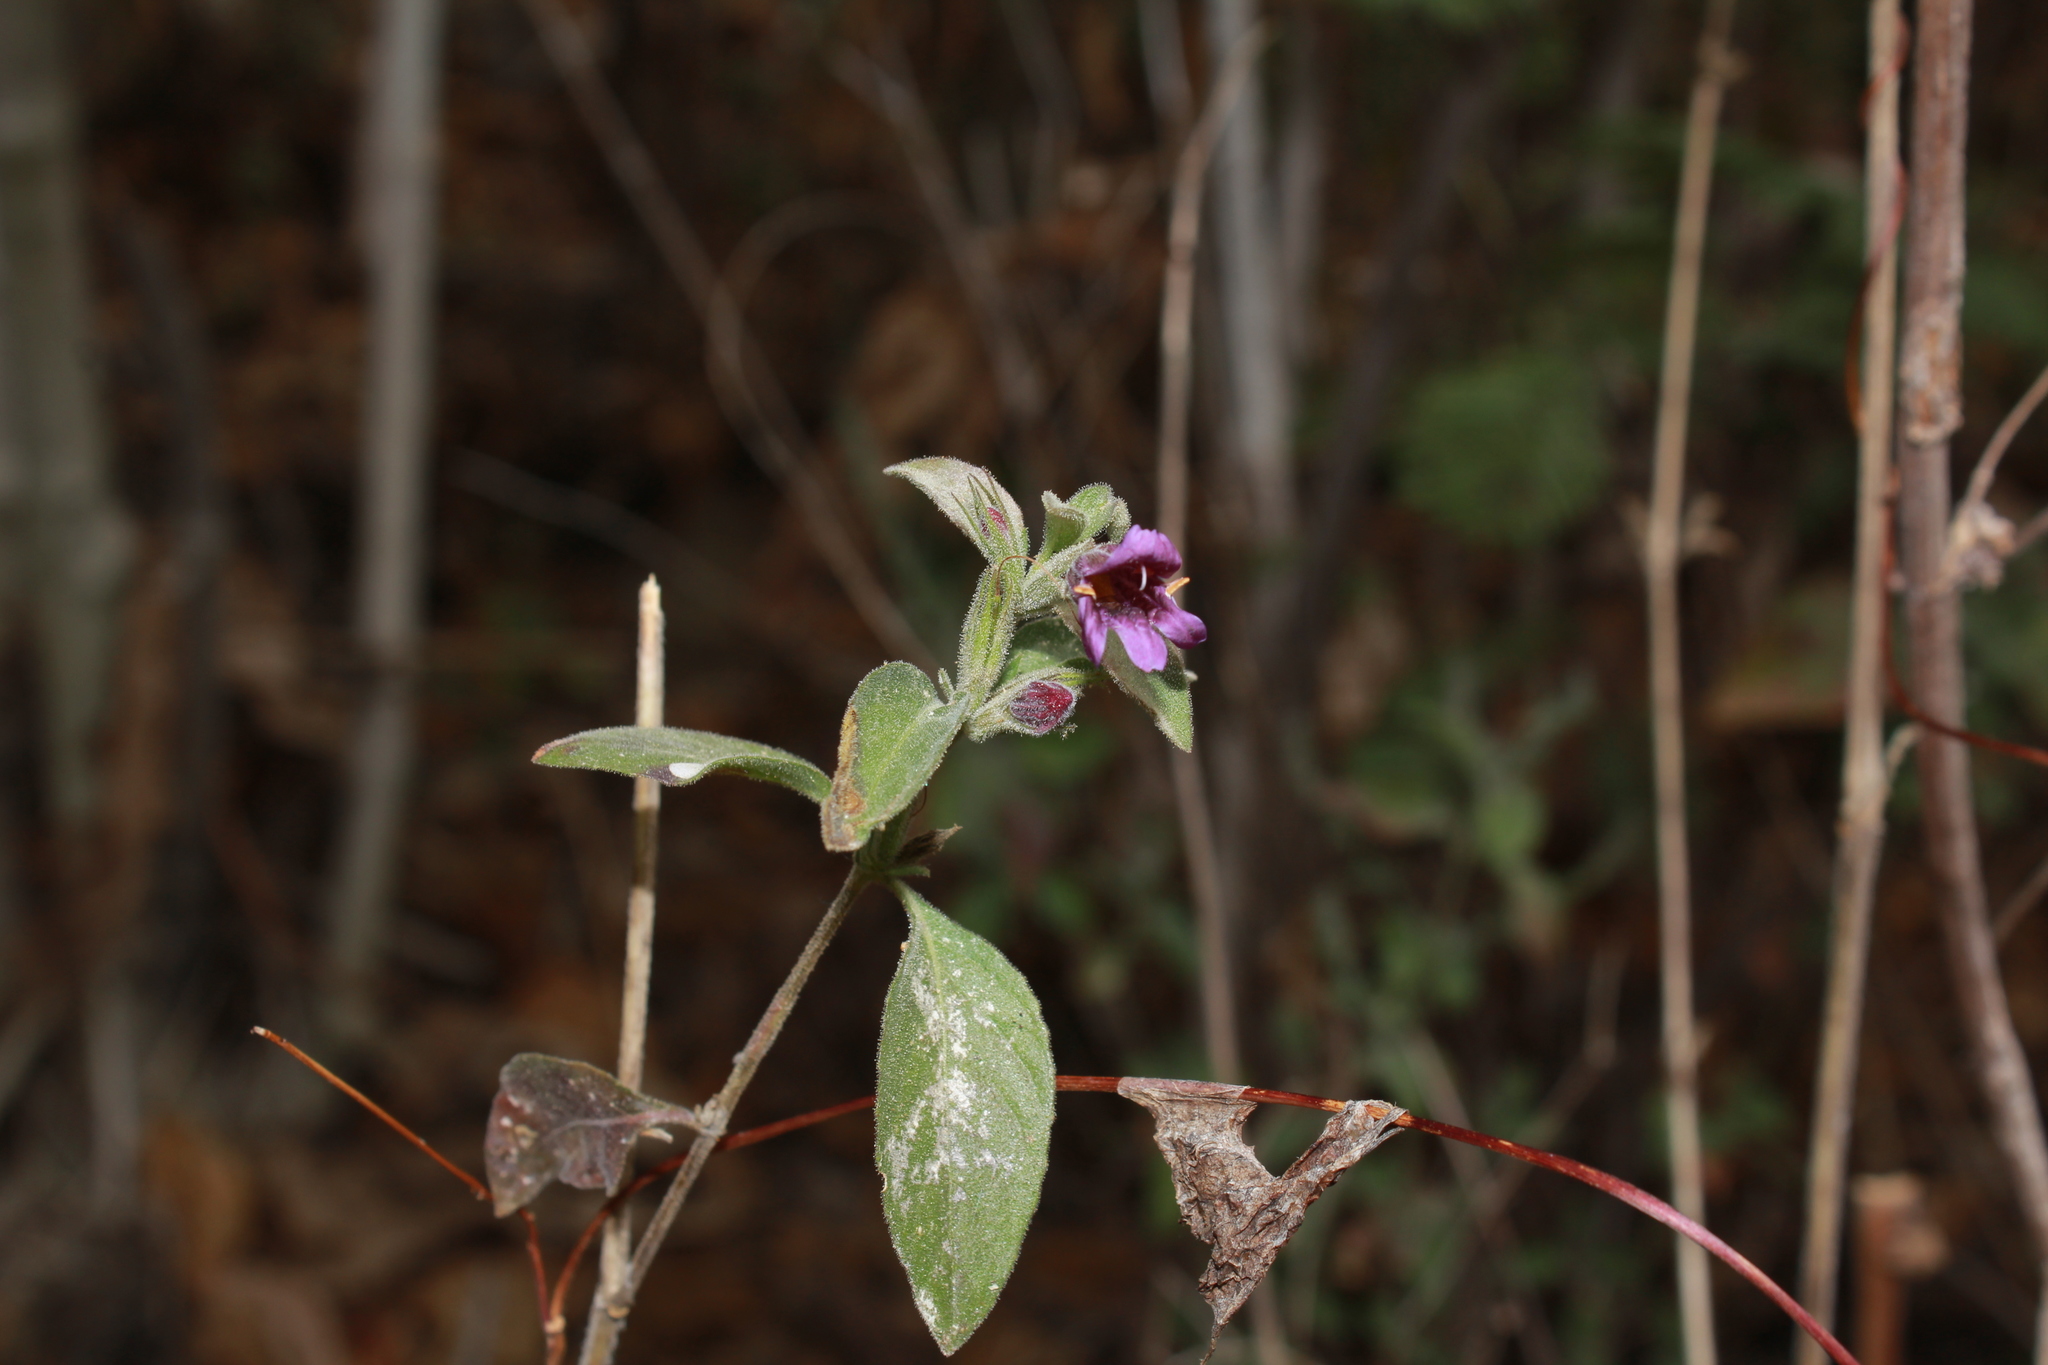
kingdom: Plantae
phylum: Tracheophyta
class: Magnoliopsida
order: Lamiales
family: Acanthaceae
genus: Dyschoriste
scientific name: Dyschoriste hirsutissima
